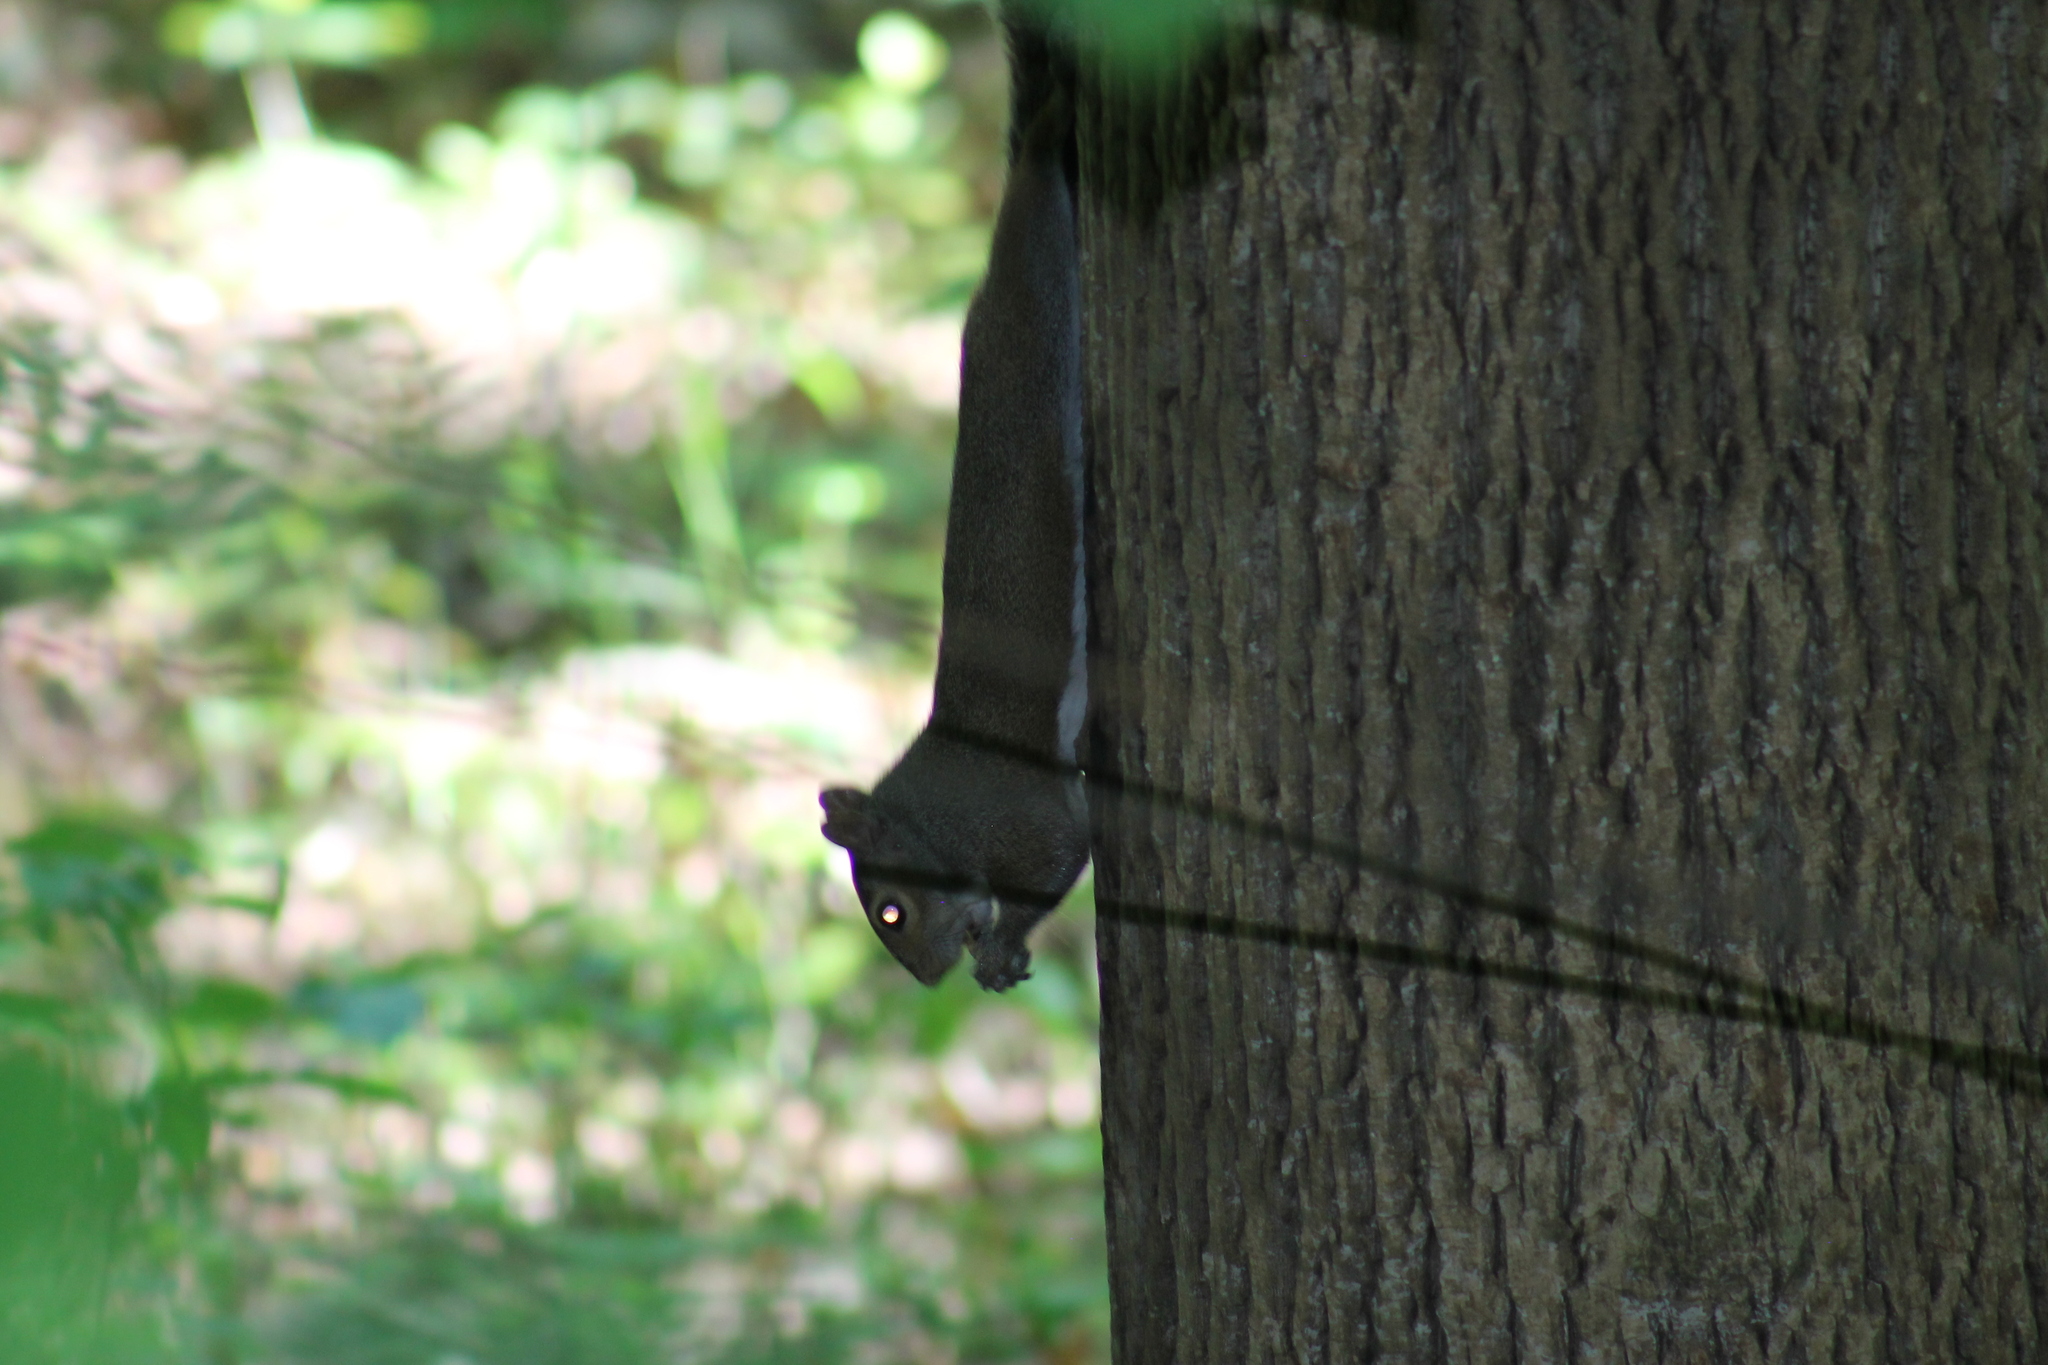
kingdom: Animalia
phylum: Chordata
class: Mammalia
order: Rodentia
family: Sciuridae
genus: Sciurus
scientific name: Sciurus carolinensis
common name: Eastern gray squirrel
